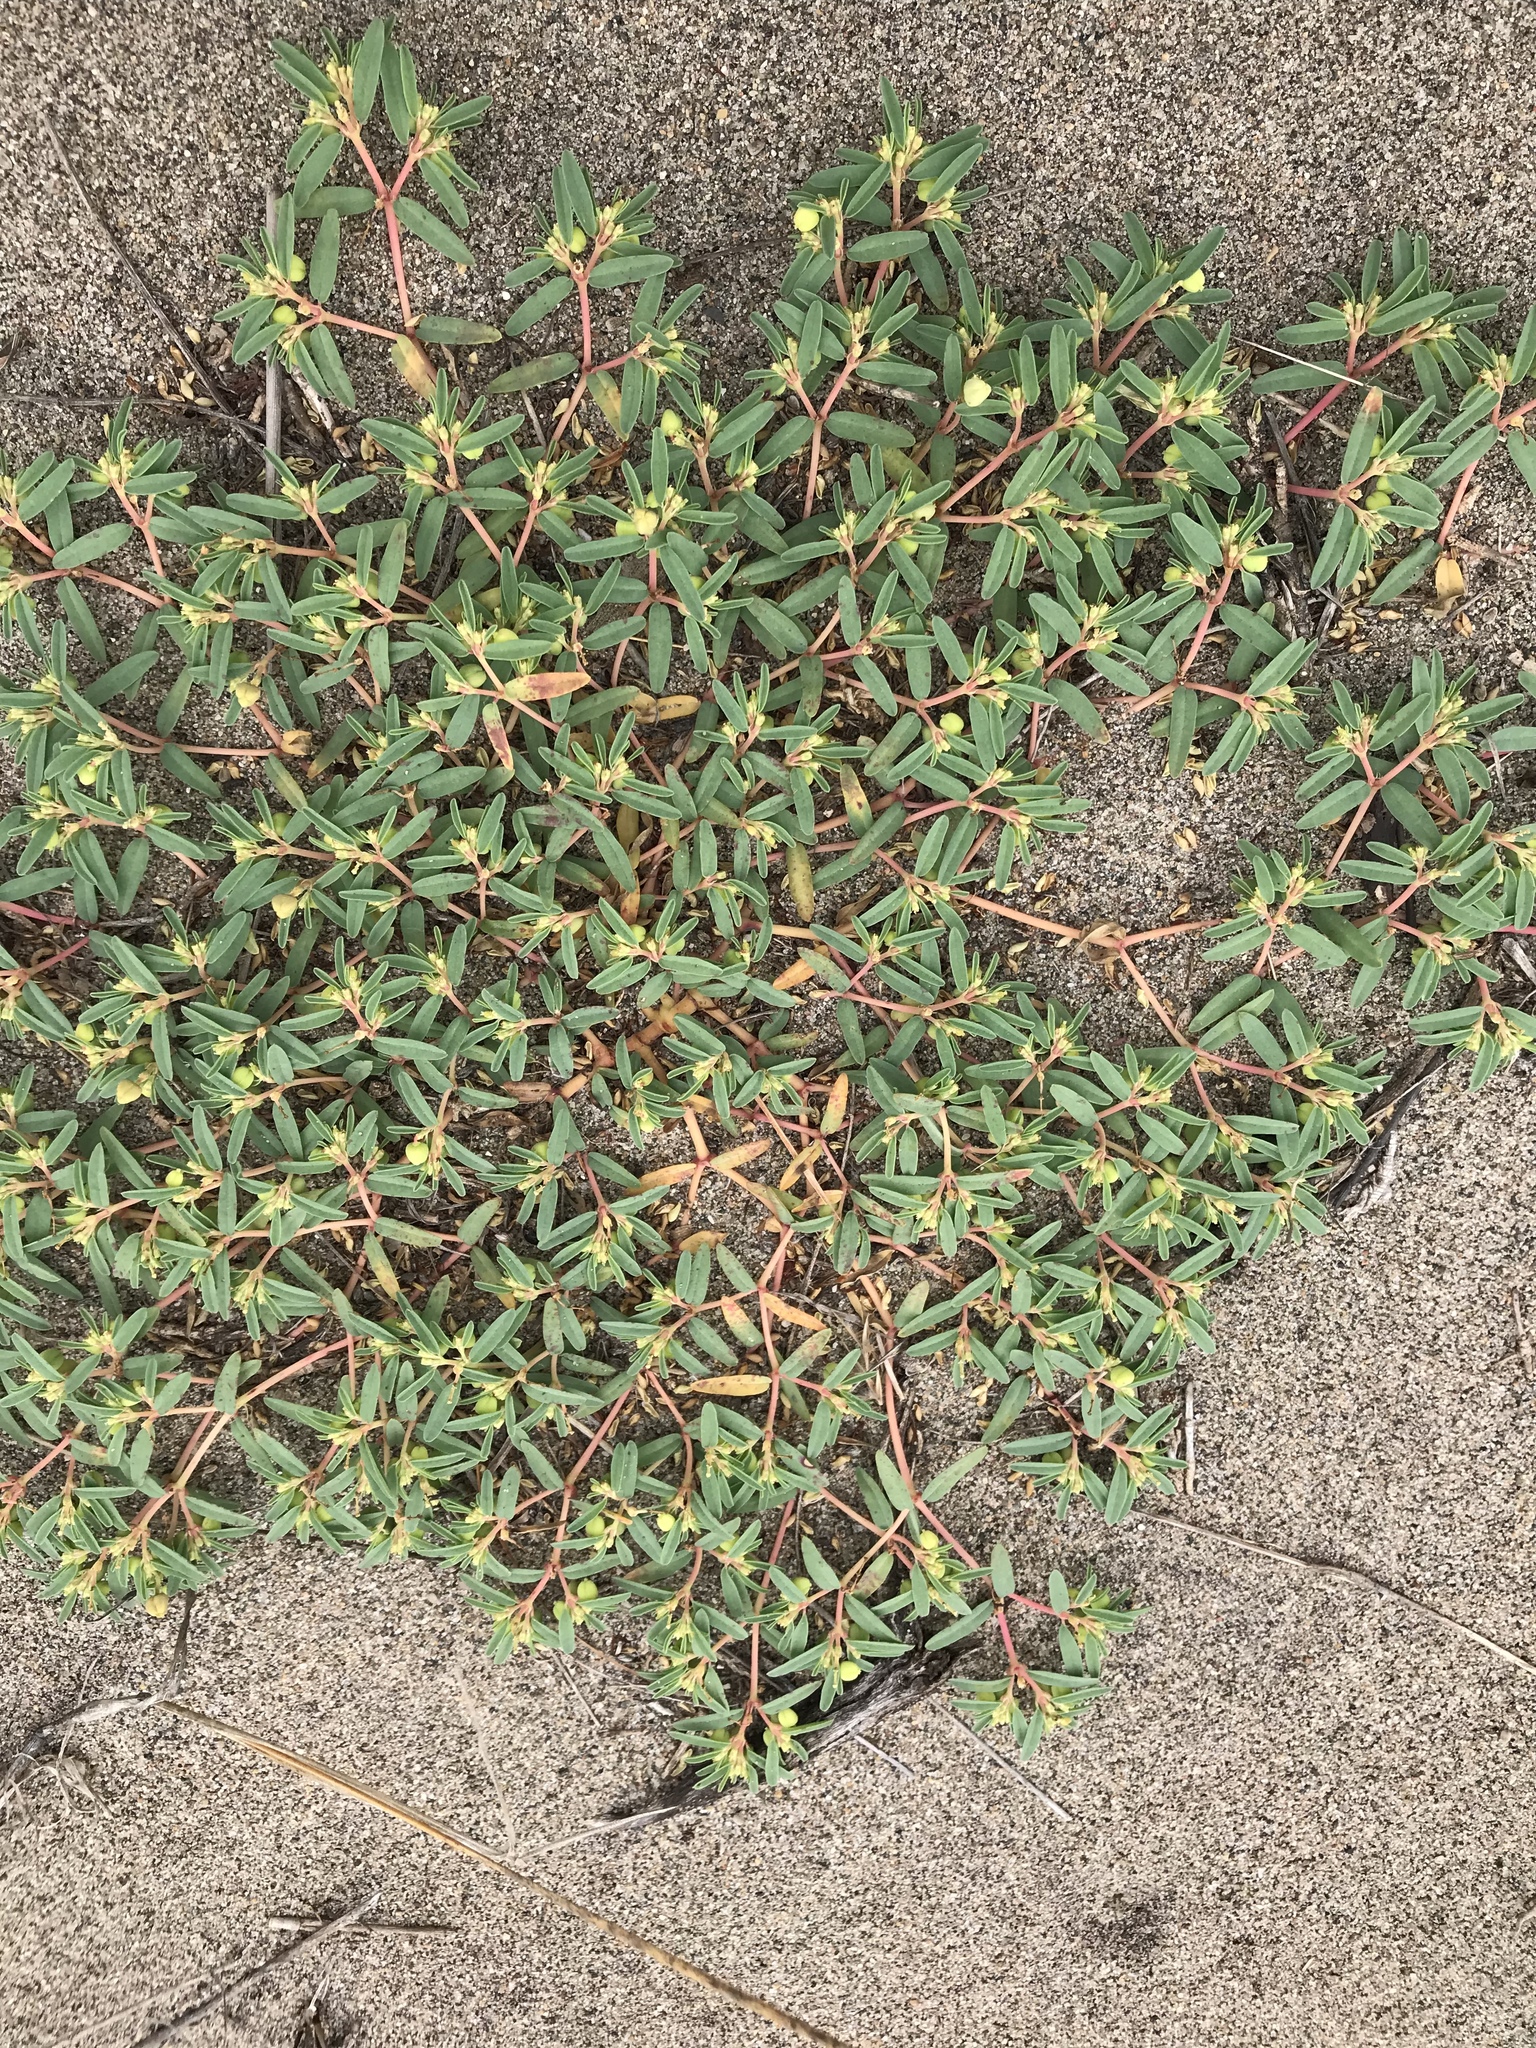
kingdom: Plantae
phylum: Tracheophyta
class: Magnoliopsida
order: Malpighiales
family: Euphorbiaceae
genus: Euphorbia
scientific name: Euphorbia polygonifolia
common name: Knotweed spurge
